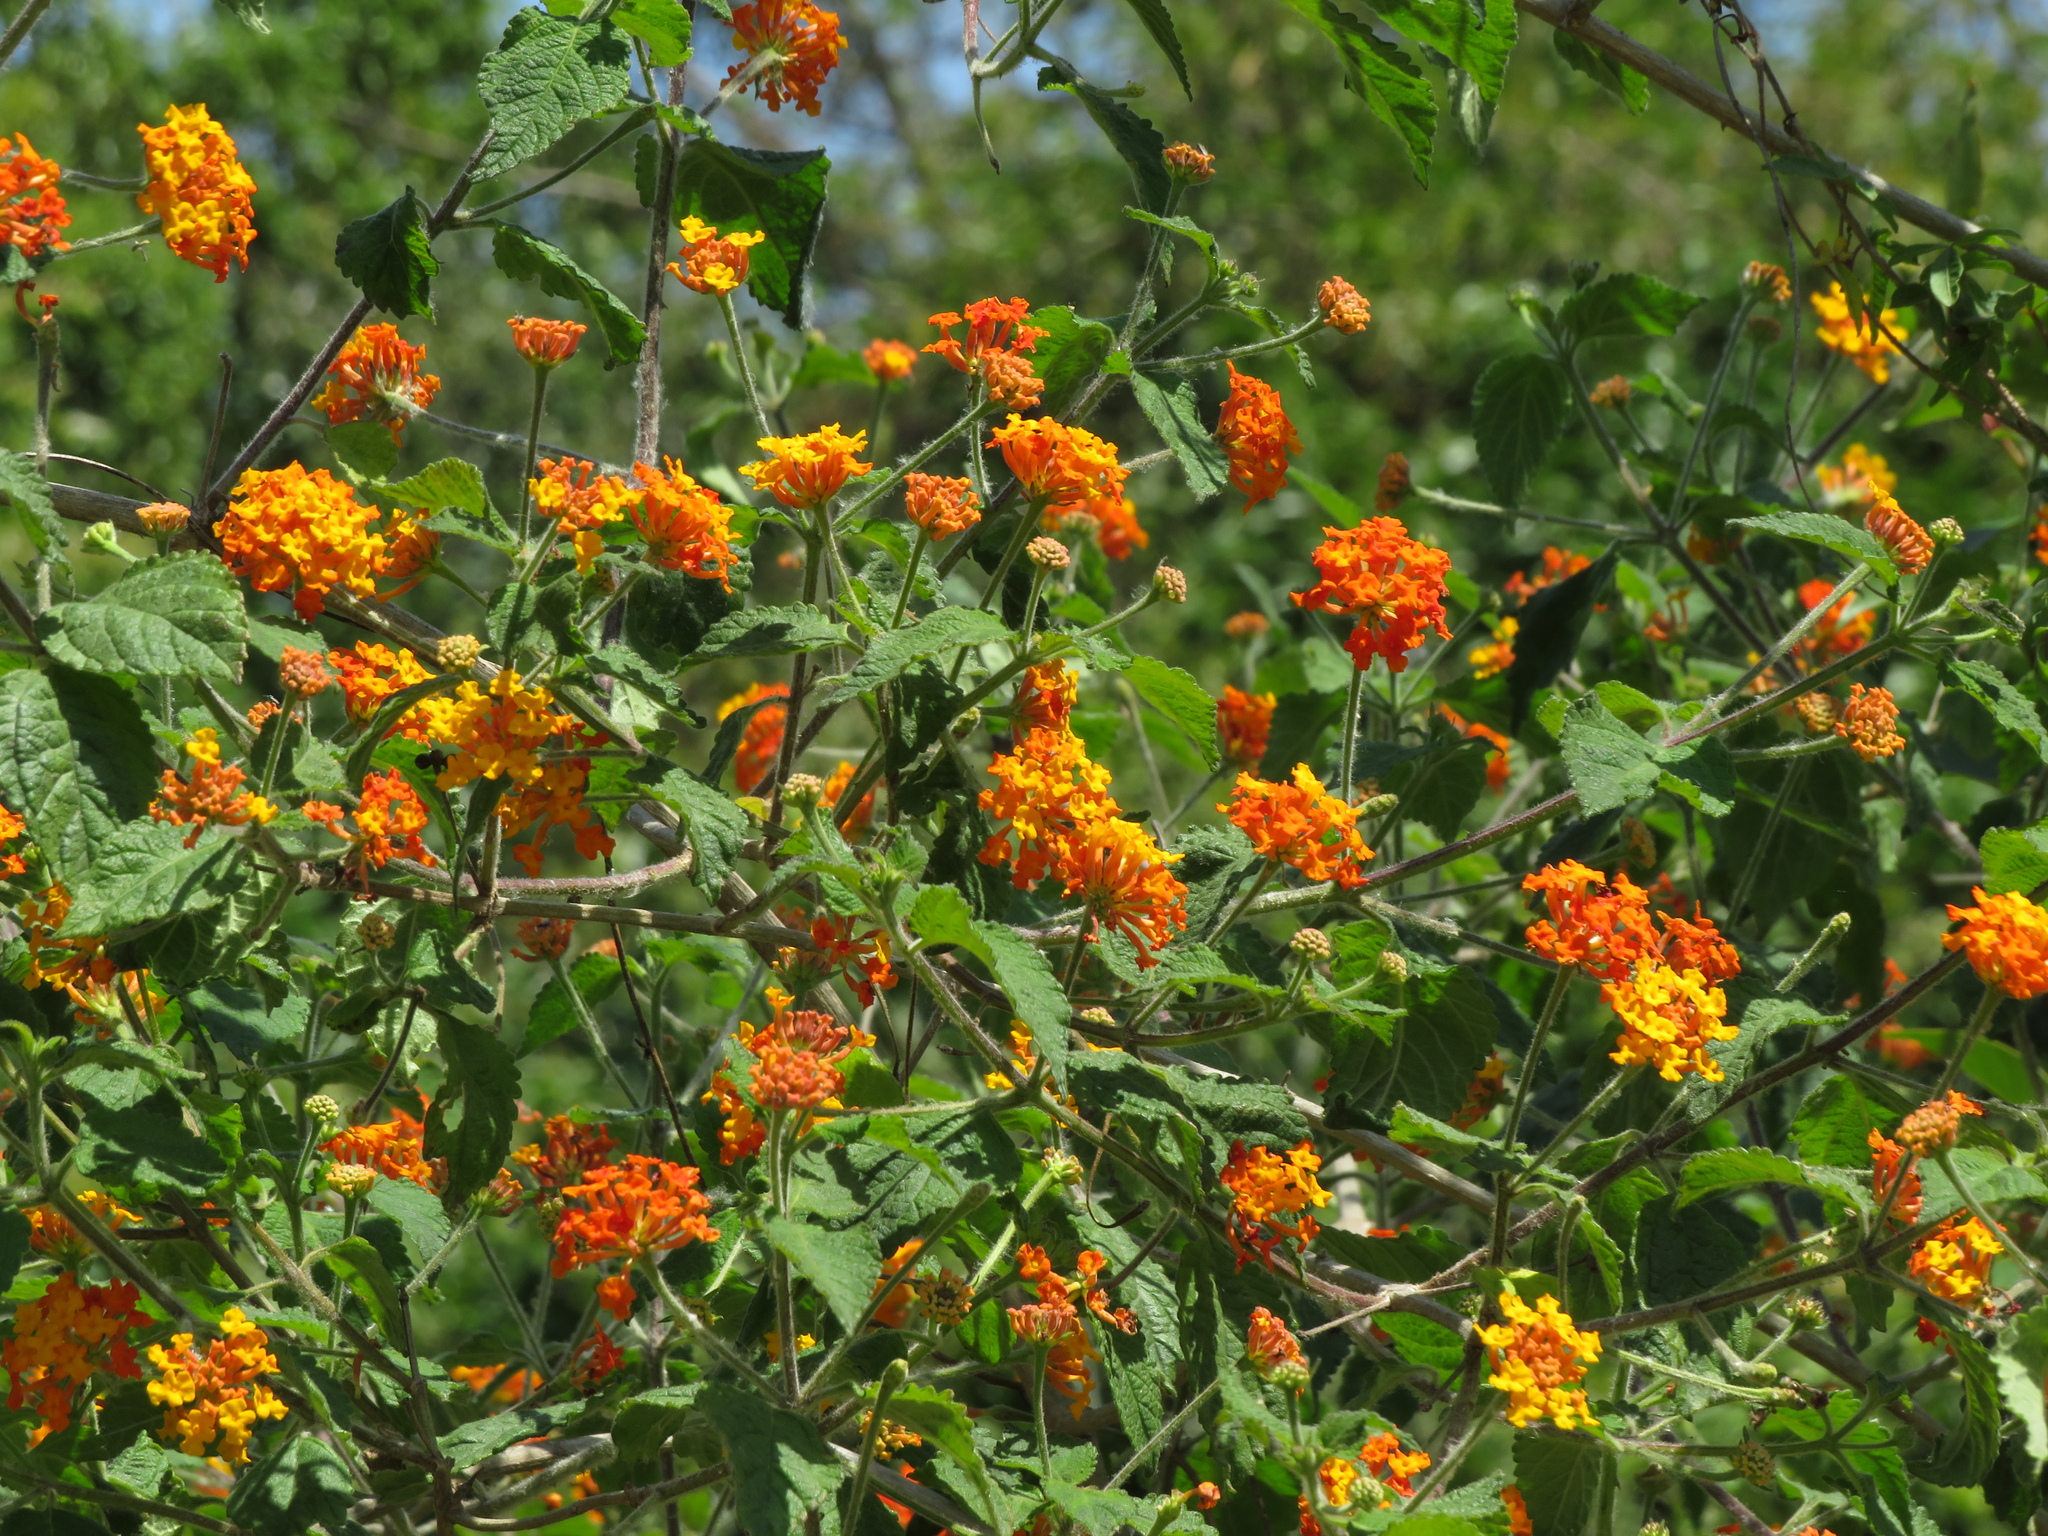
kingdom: Plantae
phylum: Tracheophyta
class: Magnoliopsida
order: Lamiales
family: Verbenaceae
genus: Lantana
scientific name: Lantana camara
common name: Lantana
